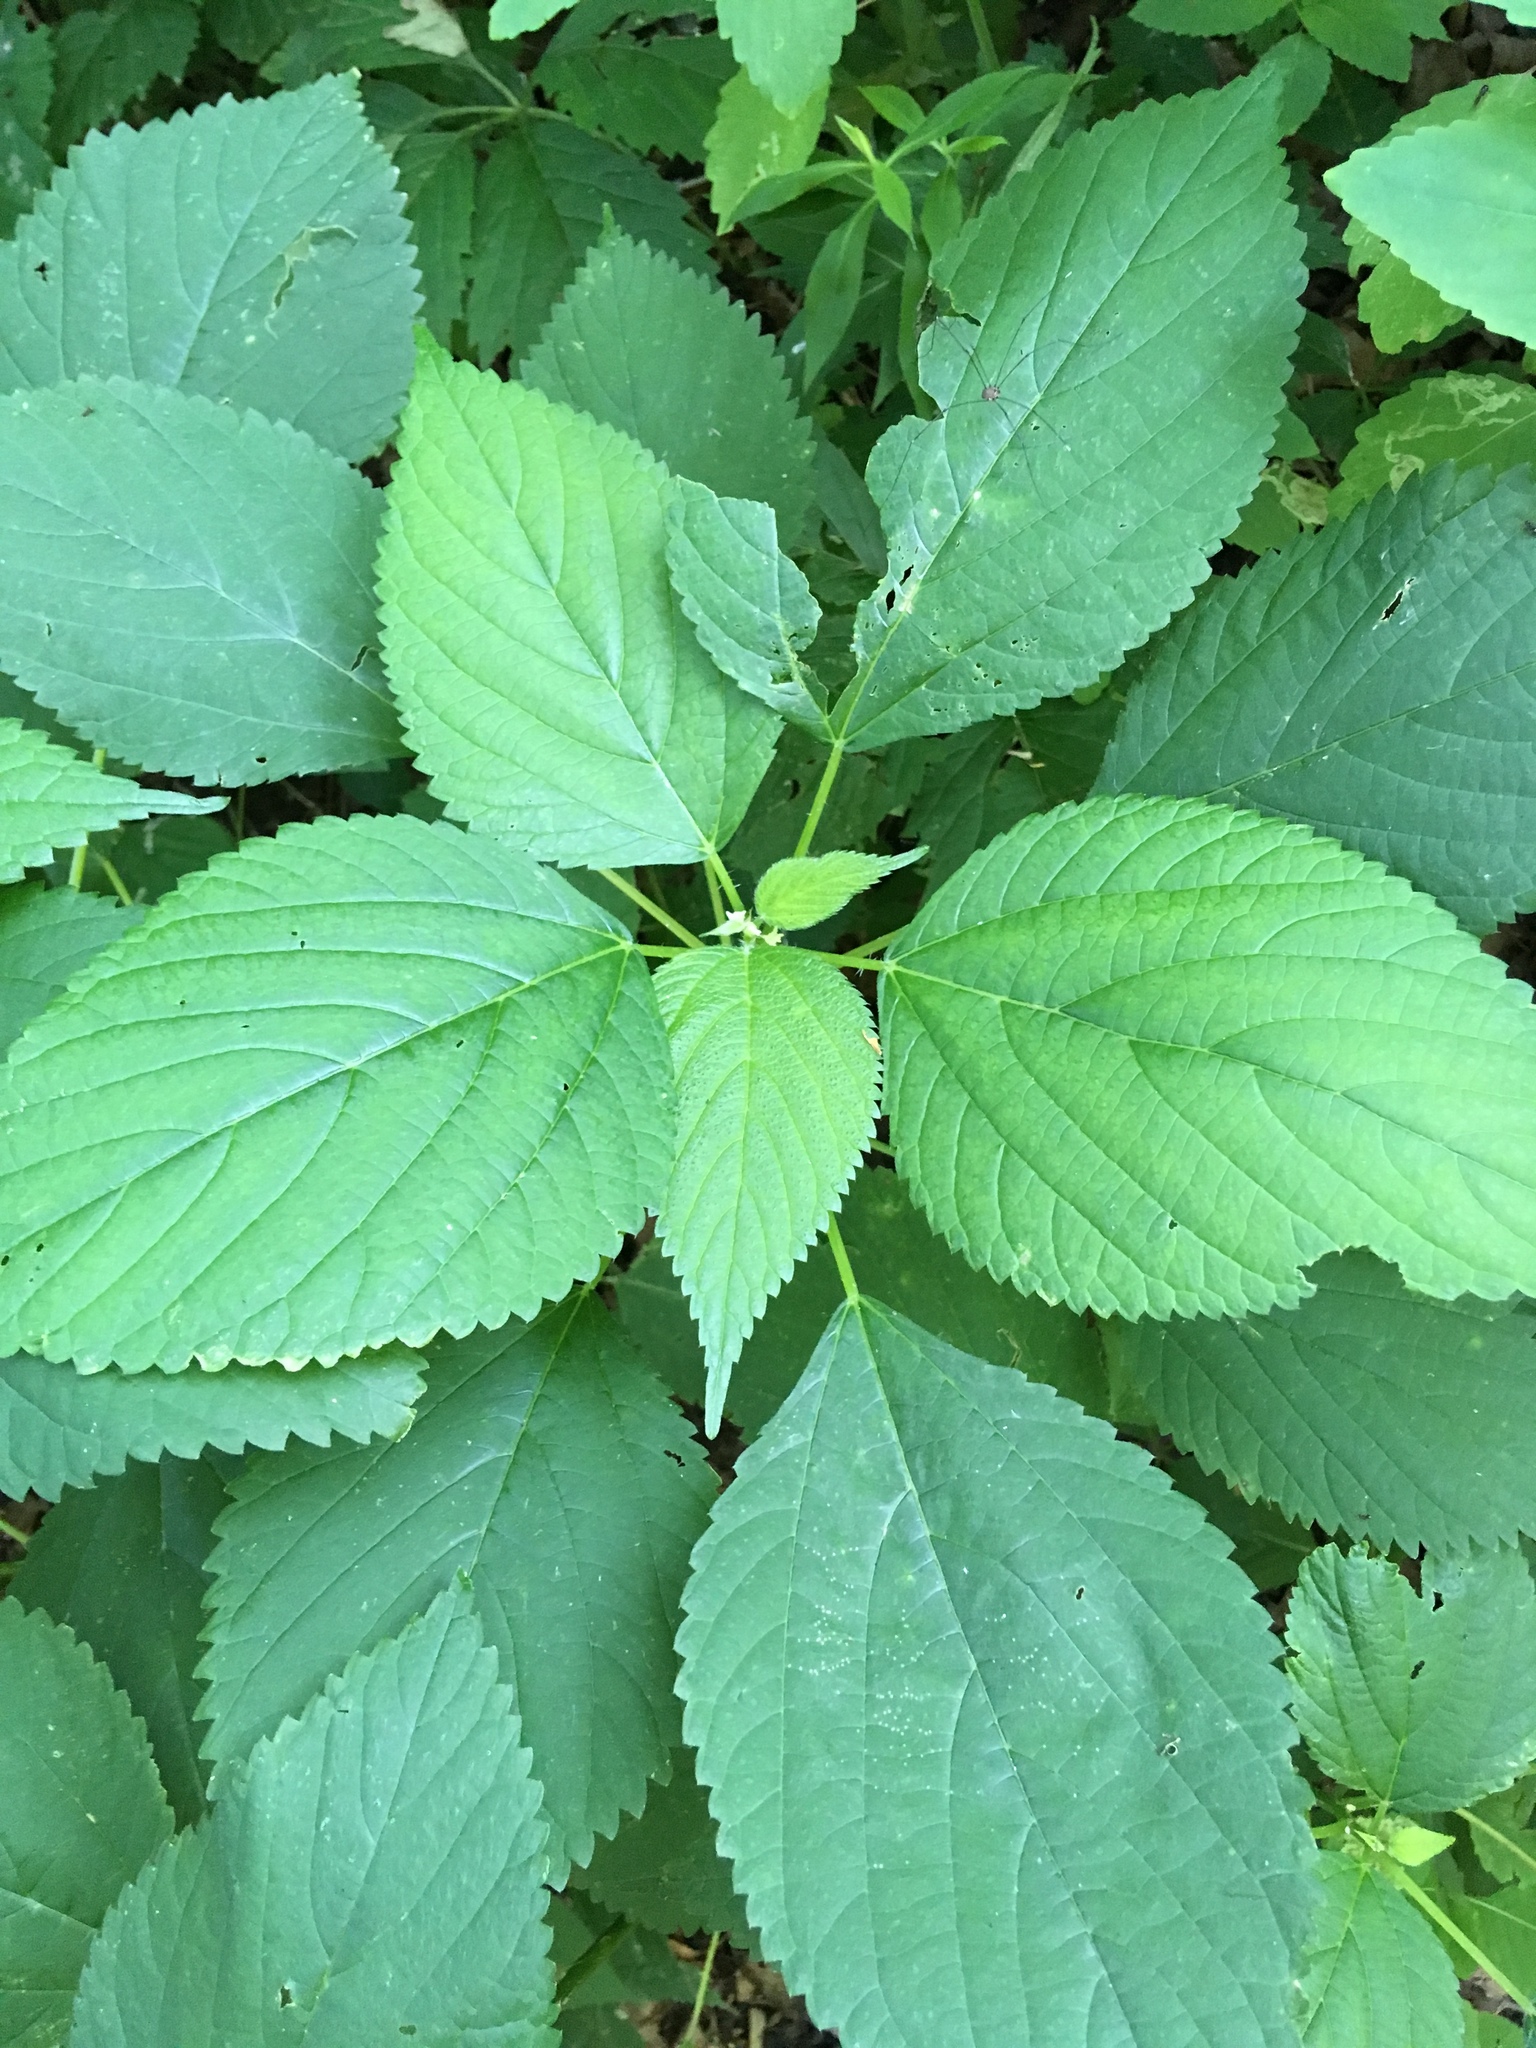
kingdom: Plantae
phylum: Tracheophyta
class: Magnoliopsida
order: Rosales
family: Urticaceae
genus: Laportea
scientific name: Laportea canadensis
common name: Canada nettle
